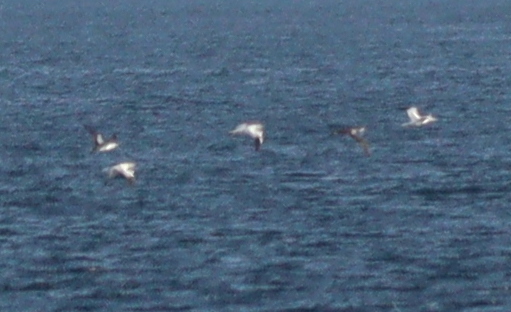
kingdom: Animalia
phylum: Chordata
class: Aves
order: Suliformes
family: Sulidae
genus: Morus
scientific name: Morus bassanus
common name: Northern gannet
